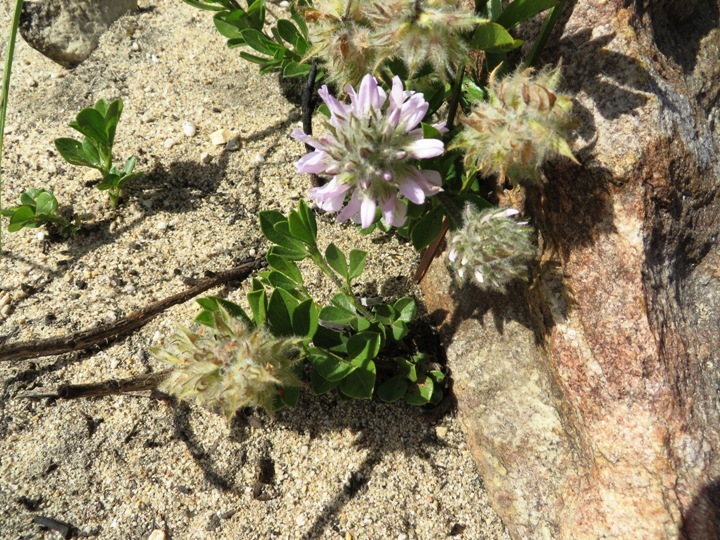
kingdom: Plantae
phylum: Tracheophyta
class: Magnoliopsida
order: Fabales
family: Fabaceae
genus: Psoralea
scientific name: Psoralea zeyheri
